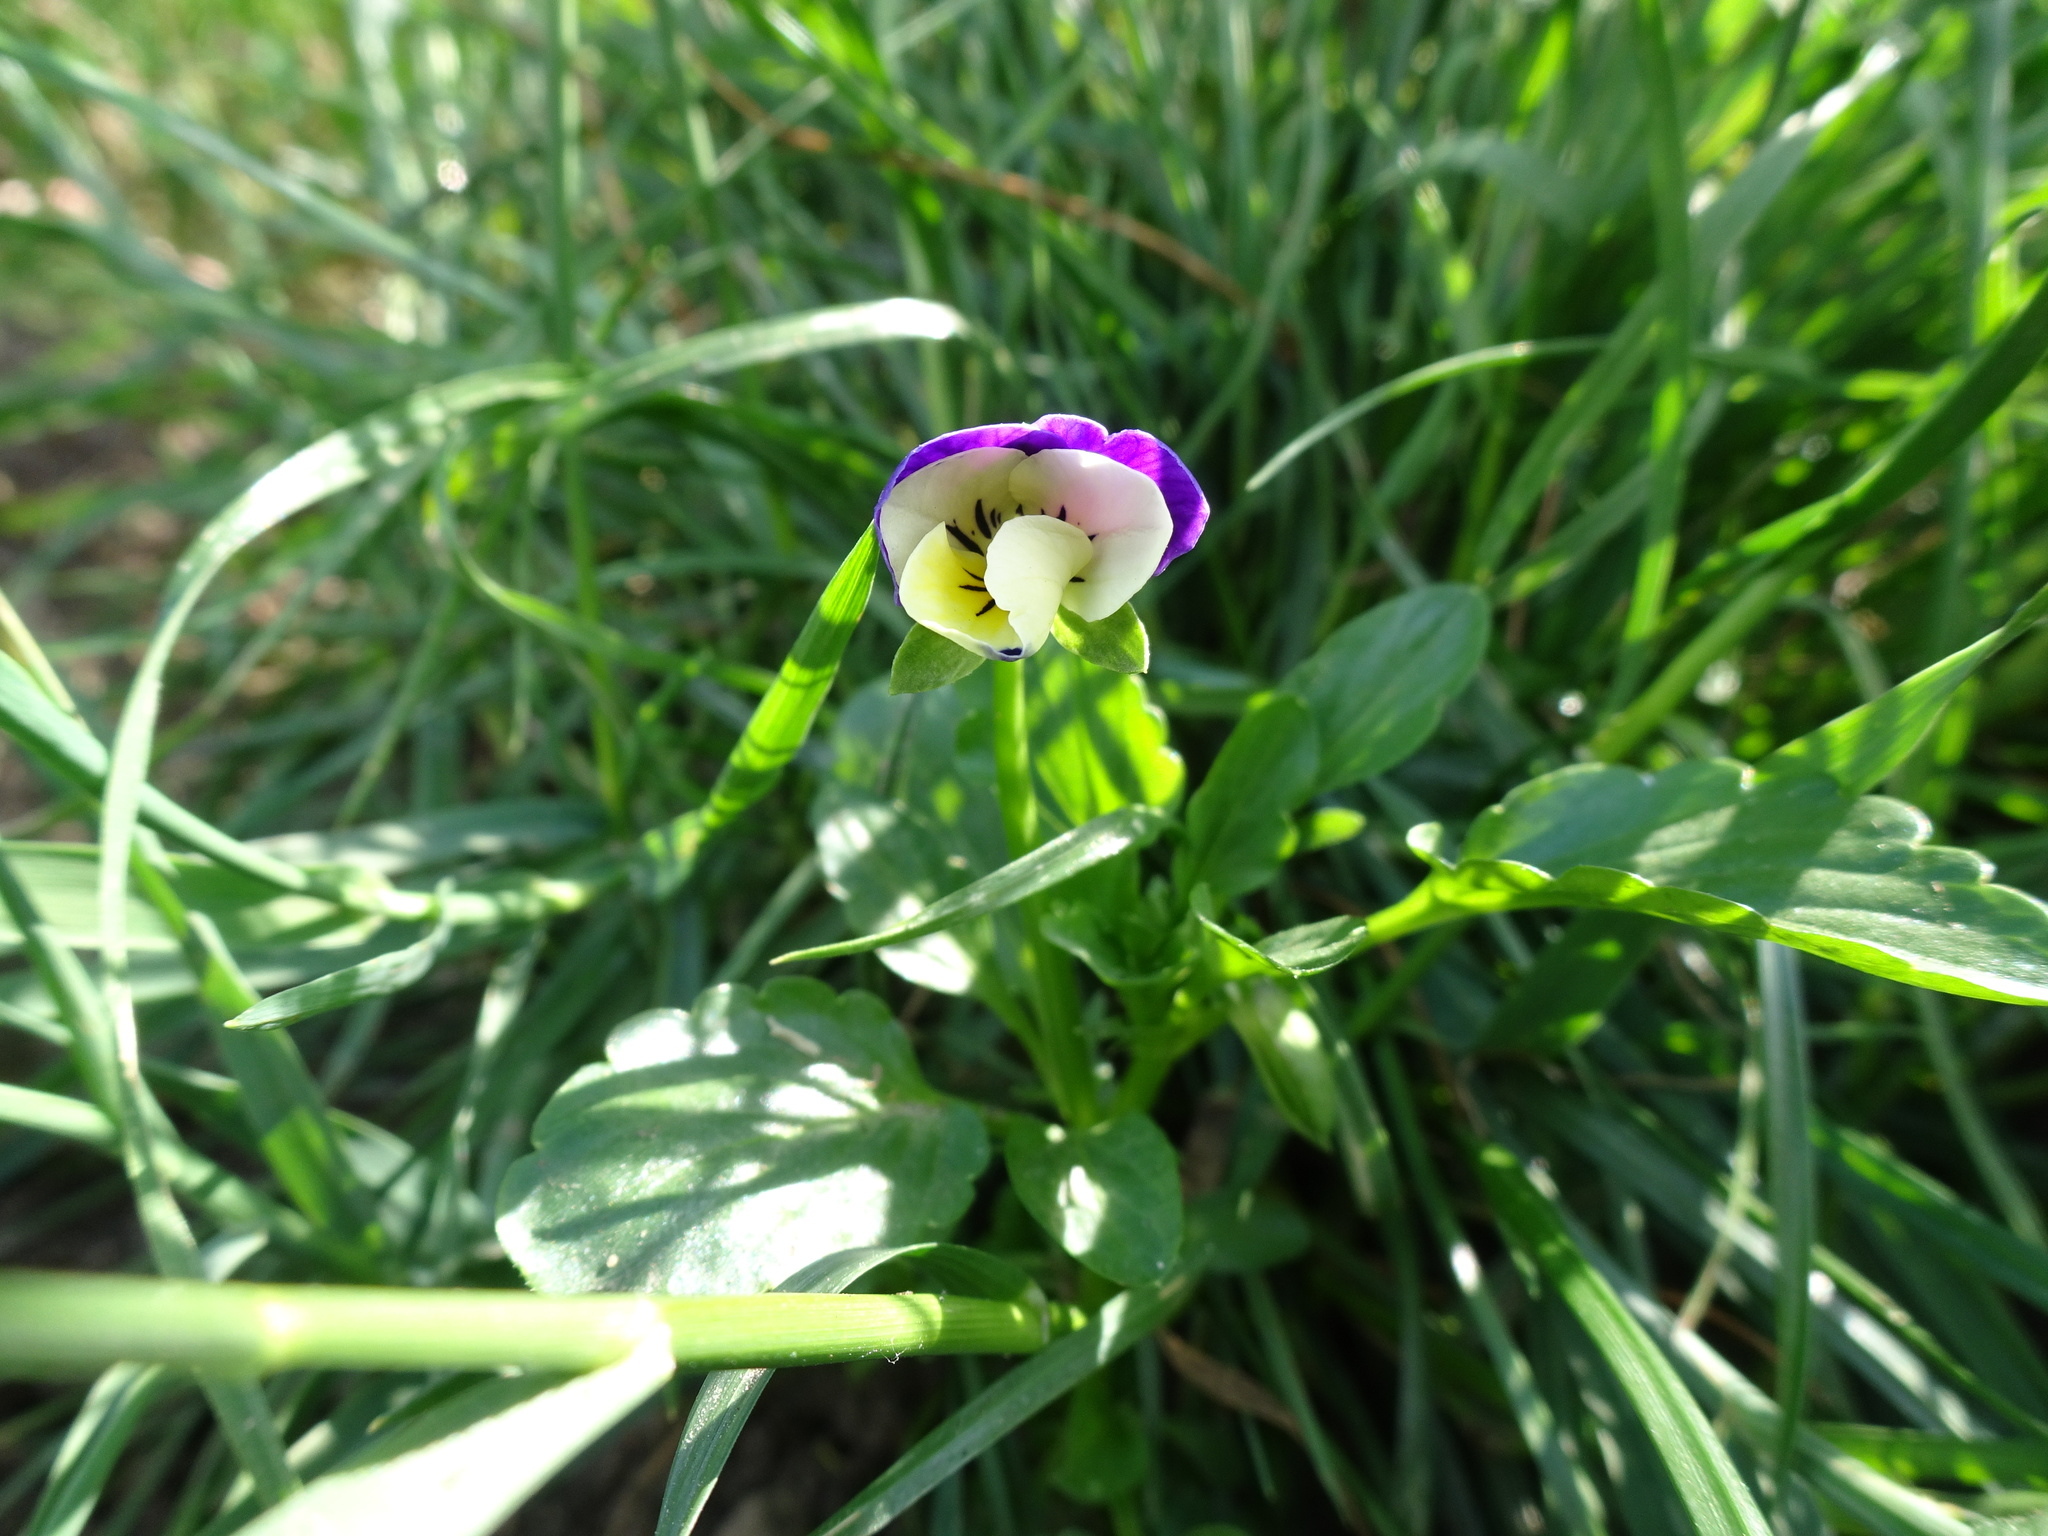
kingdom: Plantae
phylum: Tracheophyta
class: Magnoliopsida
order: Malpighiales
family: Violaceae
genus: Viola
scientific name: Viola wittrockiana
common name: Garden pansy
